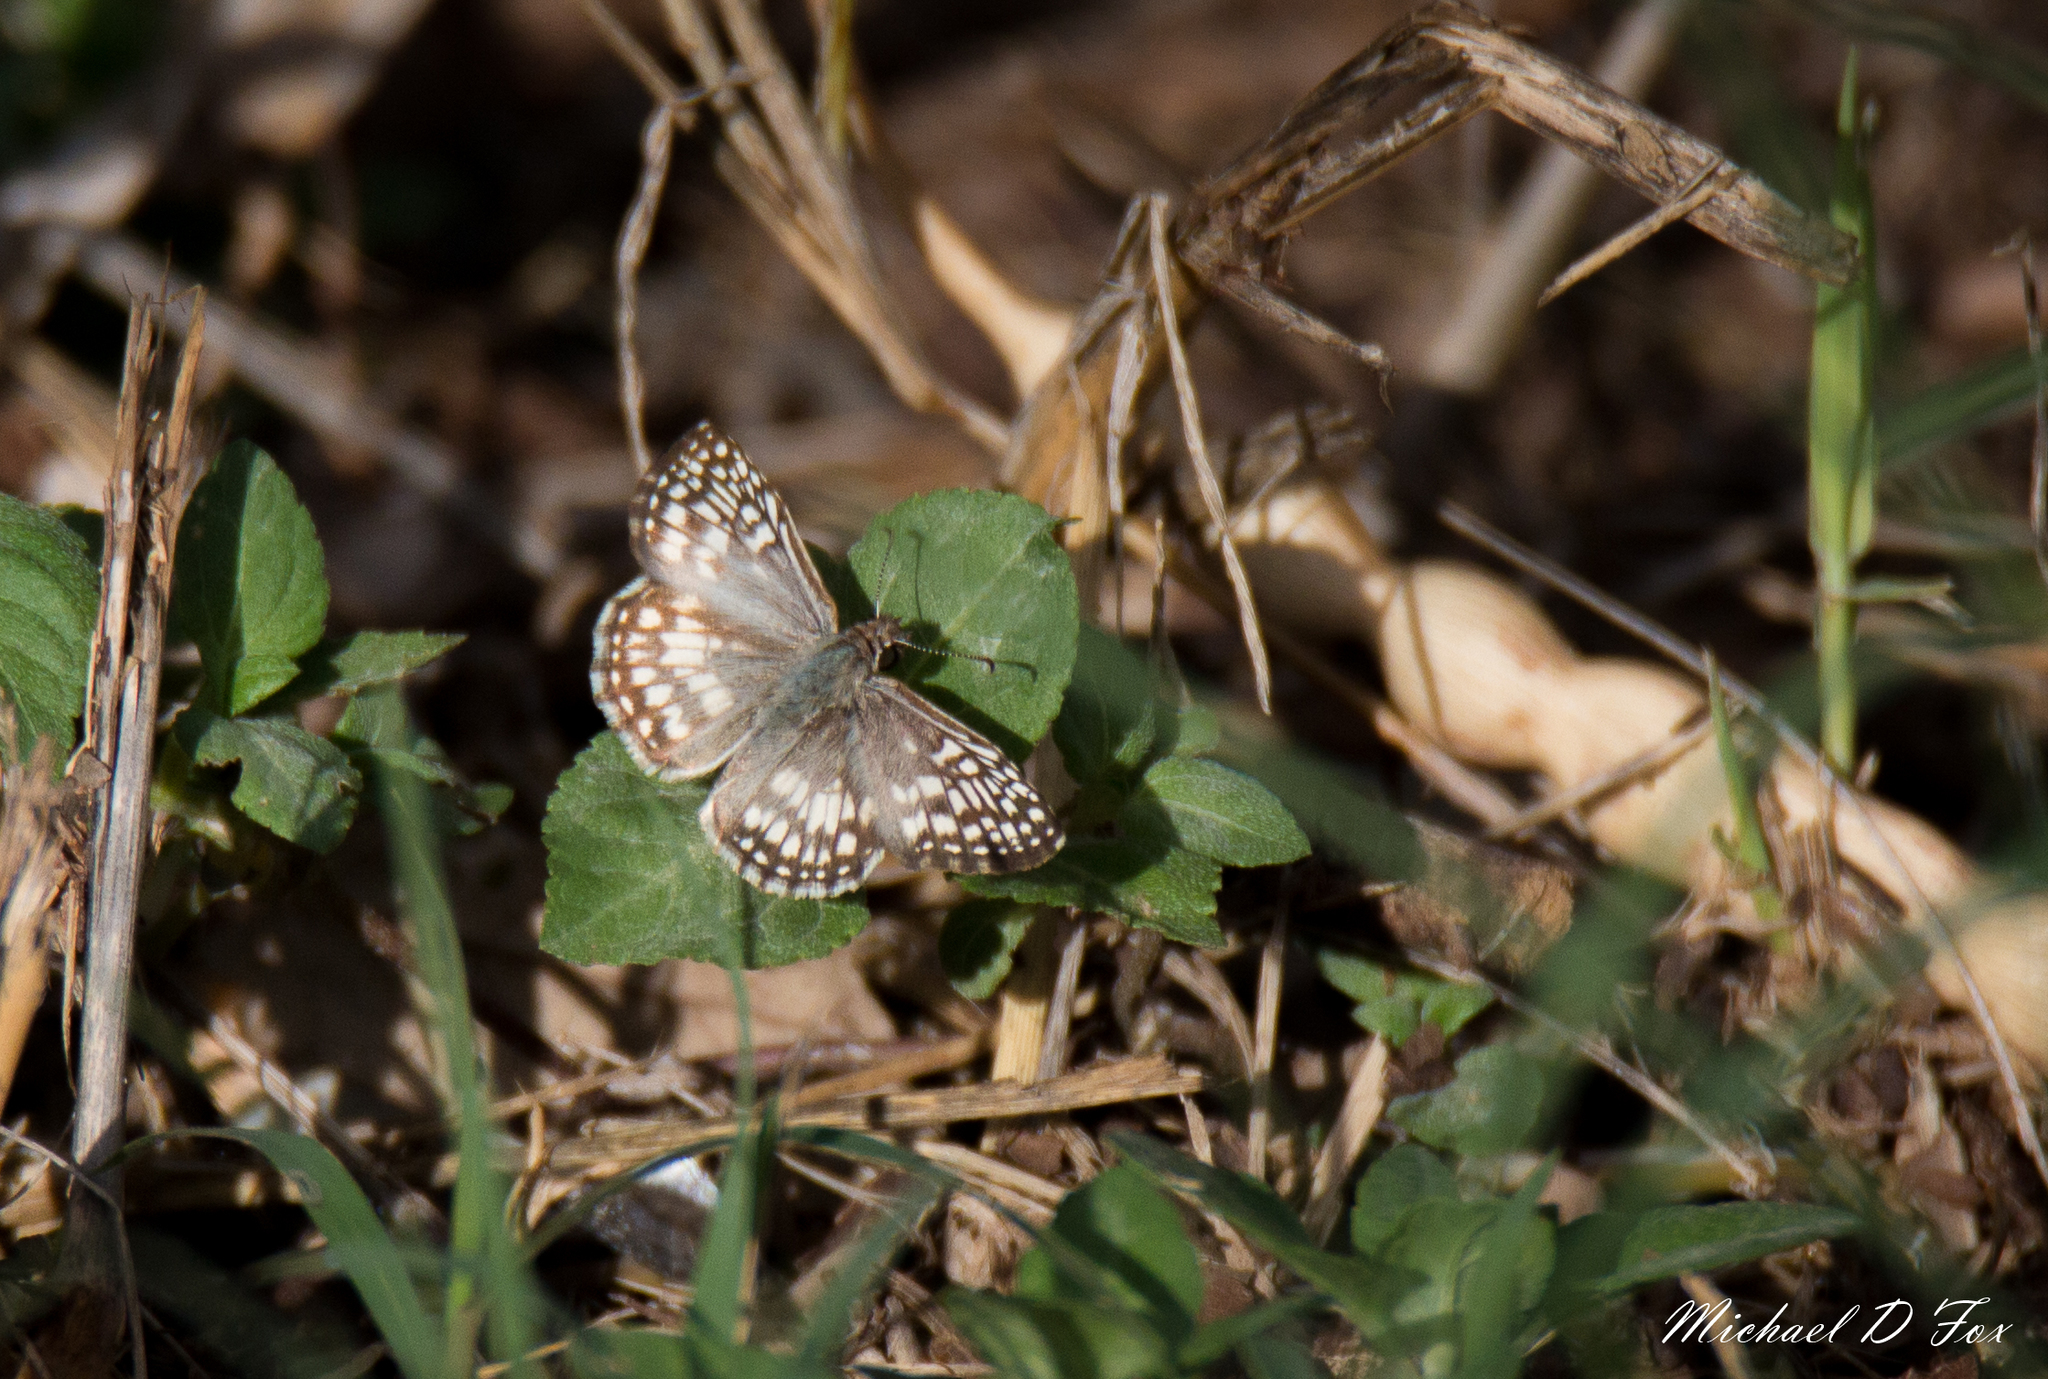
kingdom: Animalia
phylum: Arthropoda
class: Insecta
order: Lepidoptera
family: Hesperiidae
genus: Pyrgus
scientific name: Pyrgus oileus
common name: Tropical checkered-skipper
